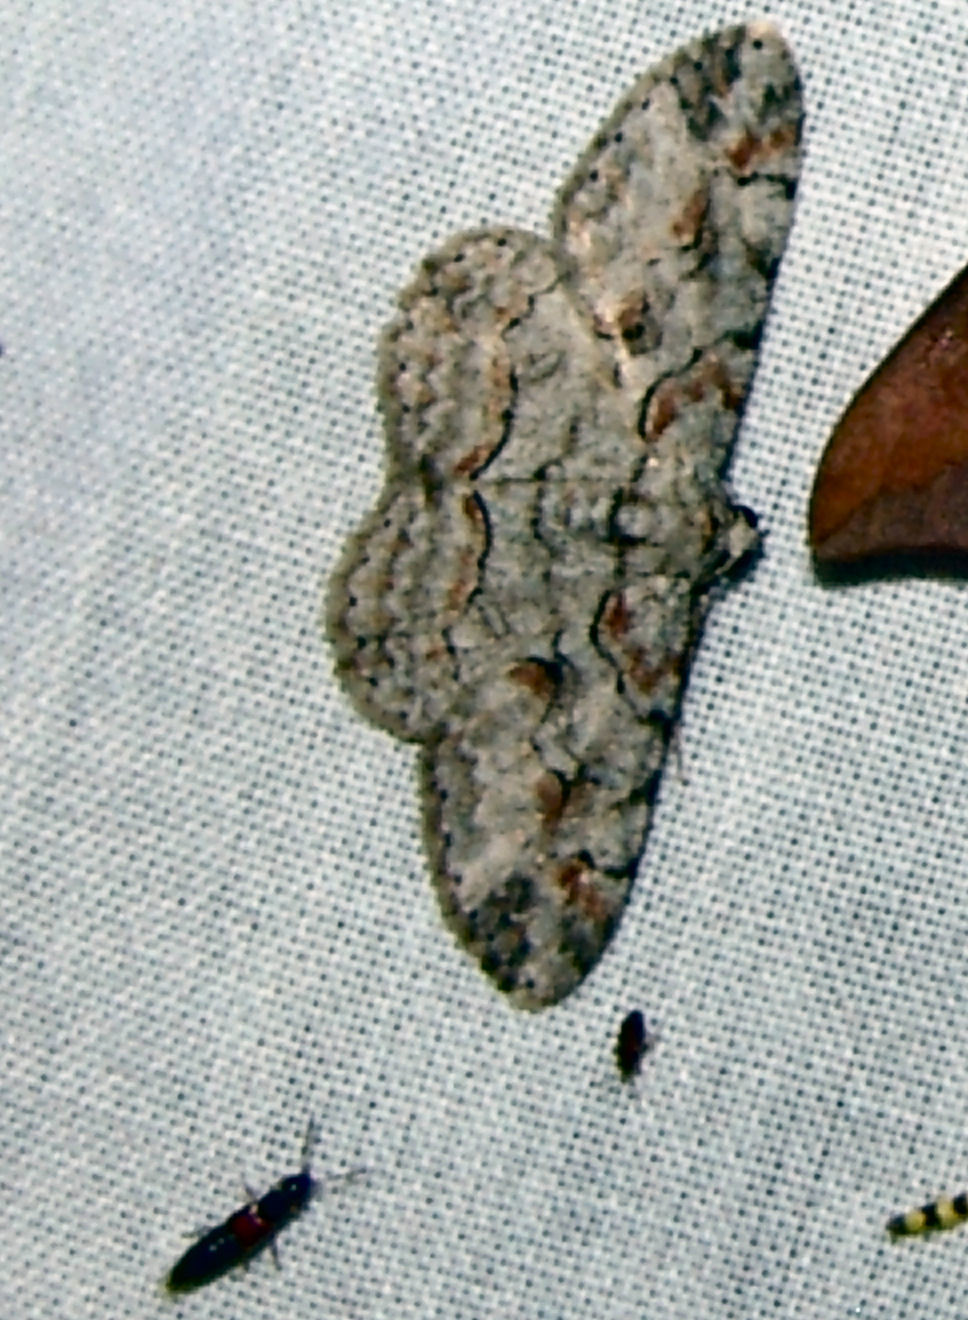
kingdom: Animalia
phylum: Arthropoda
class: Insecta
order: Lepidoptera
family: Geometridae
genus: Iridopsis
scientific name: Iridopsis defectaria
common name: Brown-shaded gray
